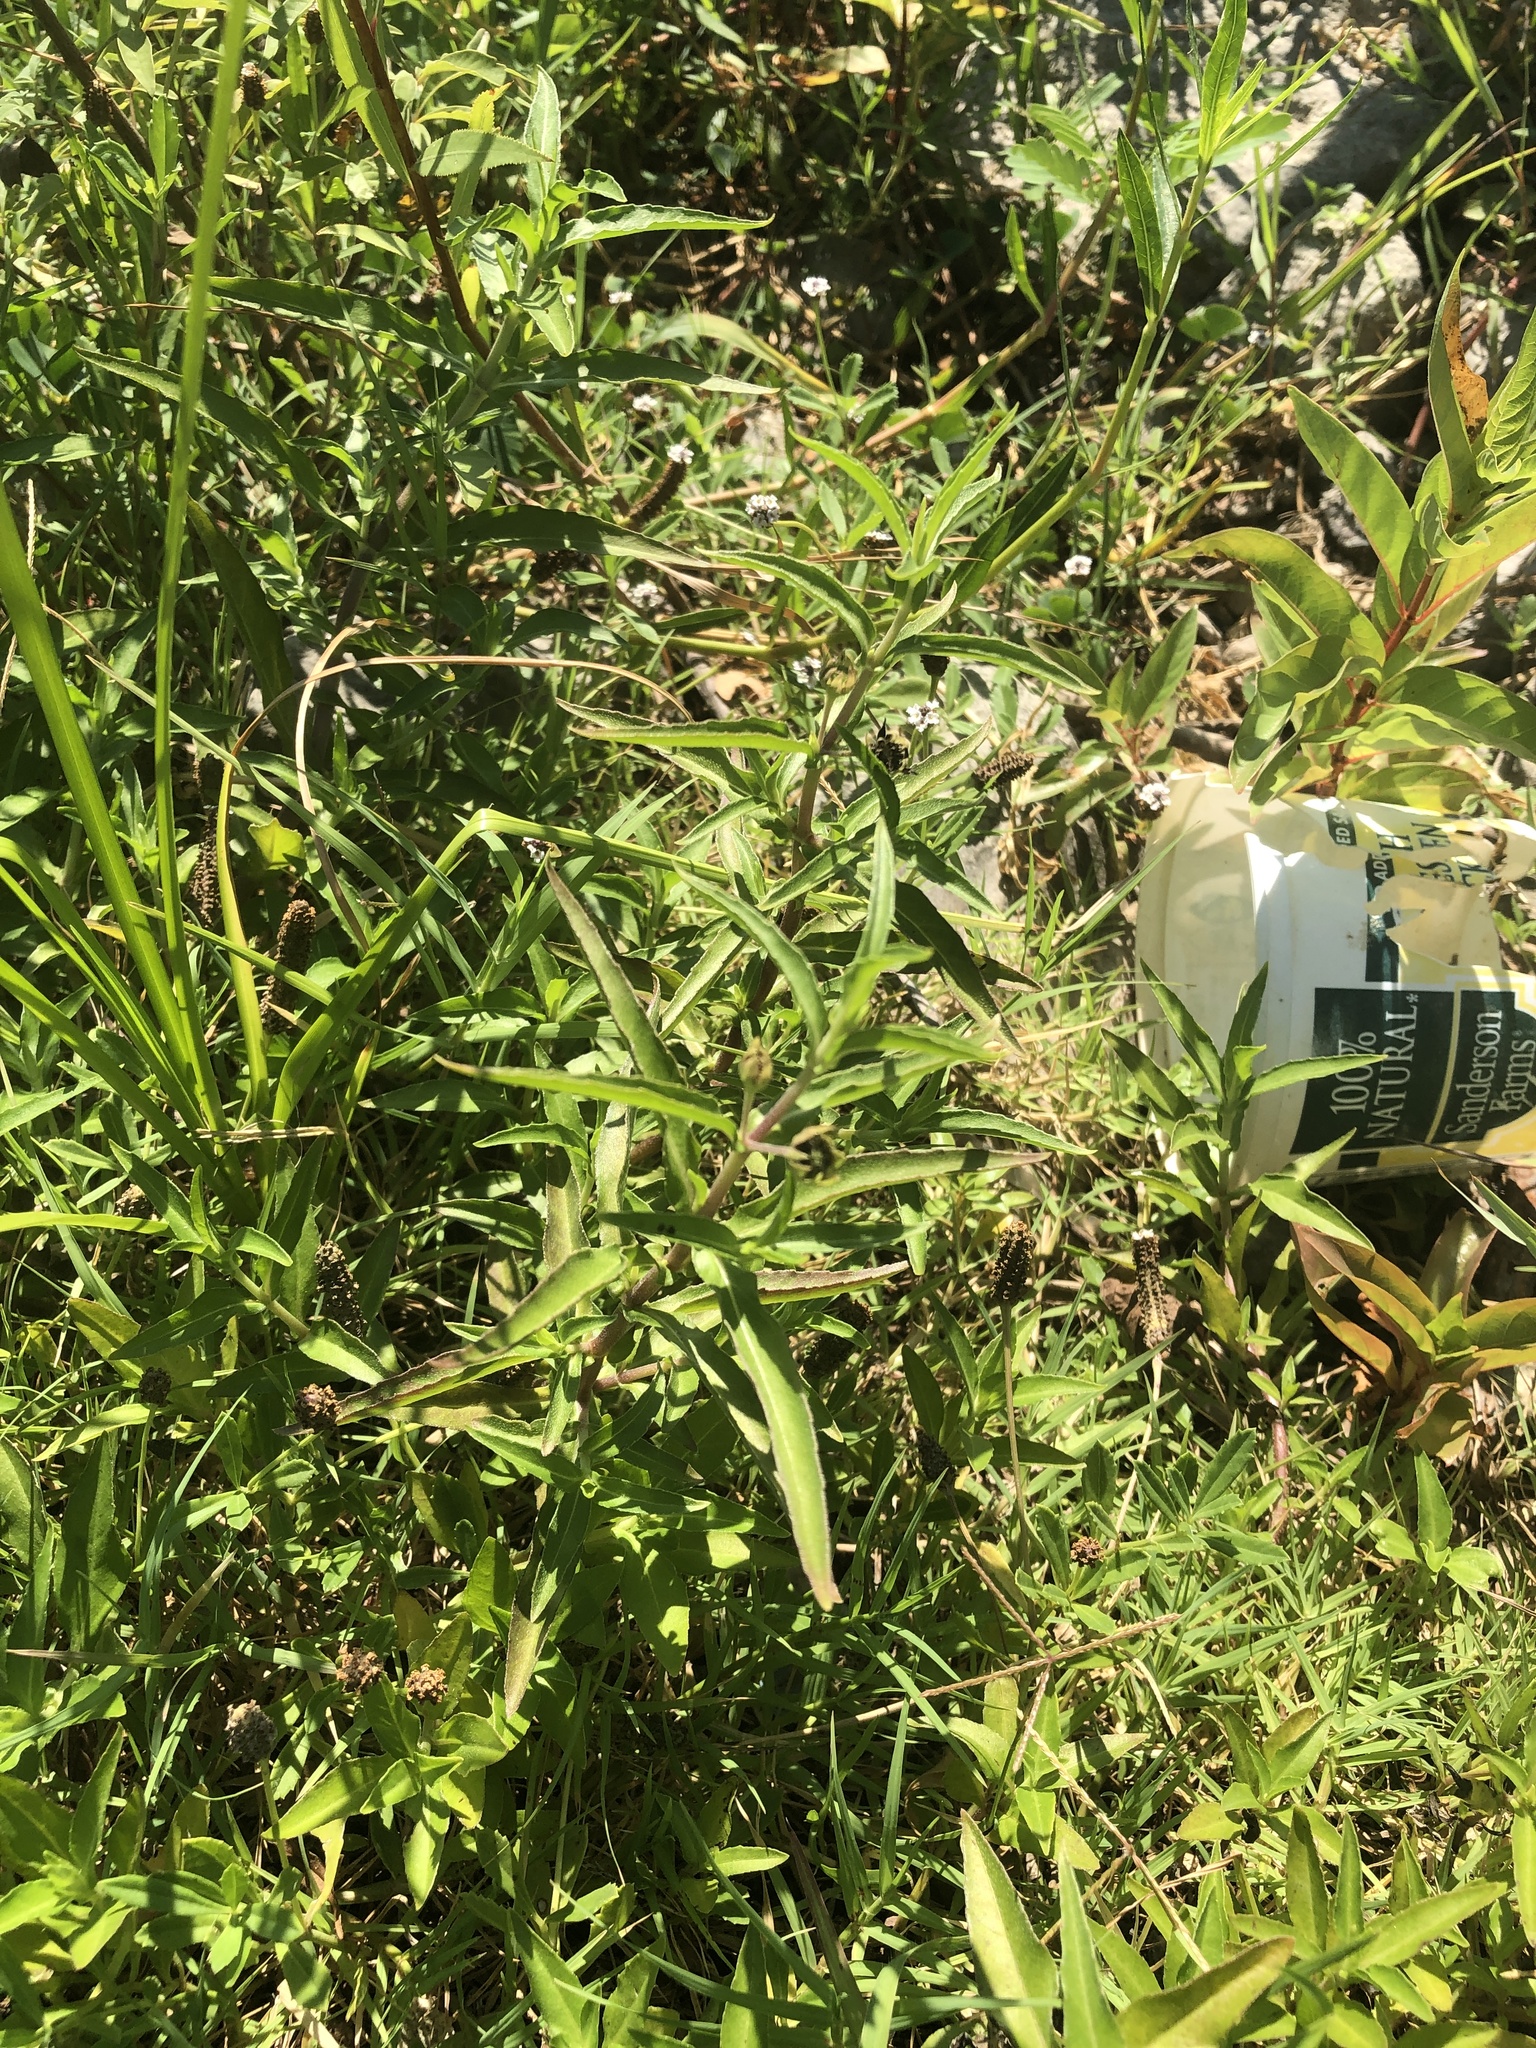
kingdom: Plantae
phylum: Tracheophyta
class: Magnoliopsida
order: Asterales
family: Asteraceae
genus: Eclipta
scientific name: Eclipta prostrata
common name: False daisy
